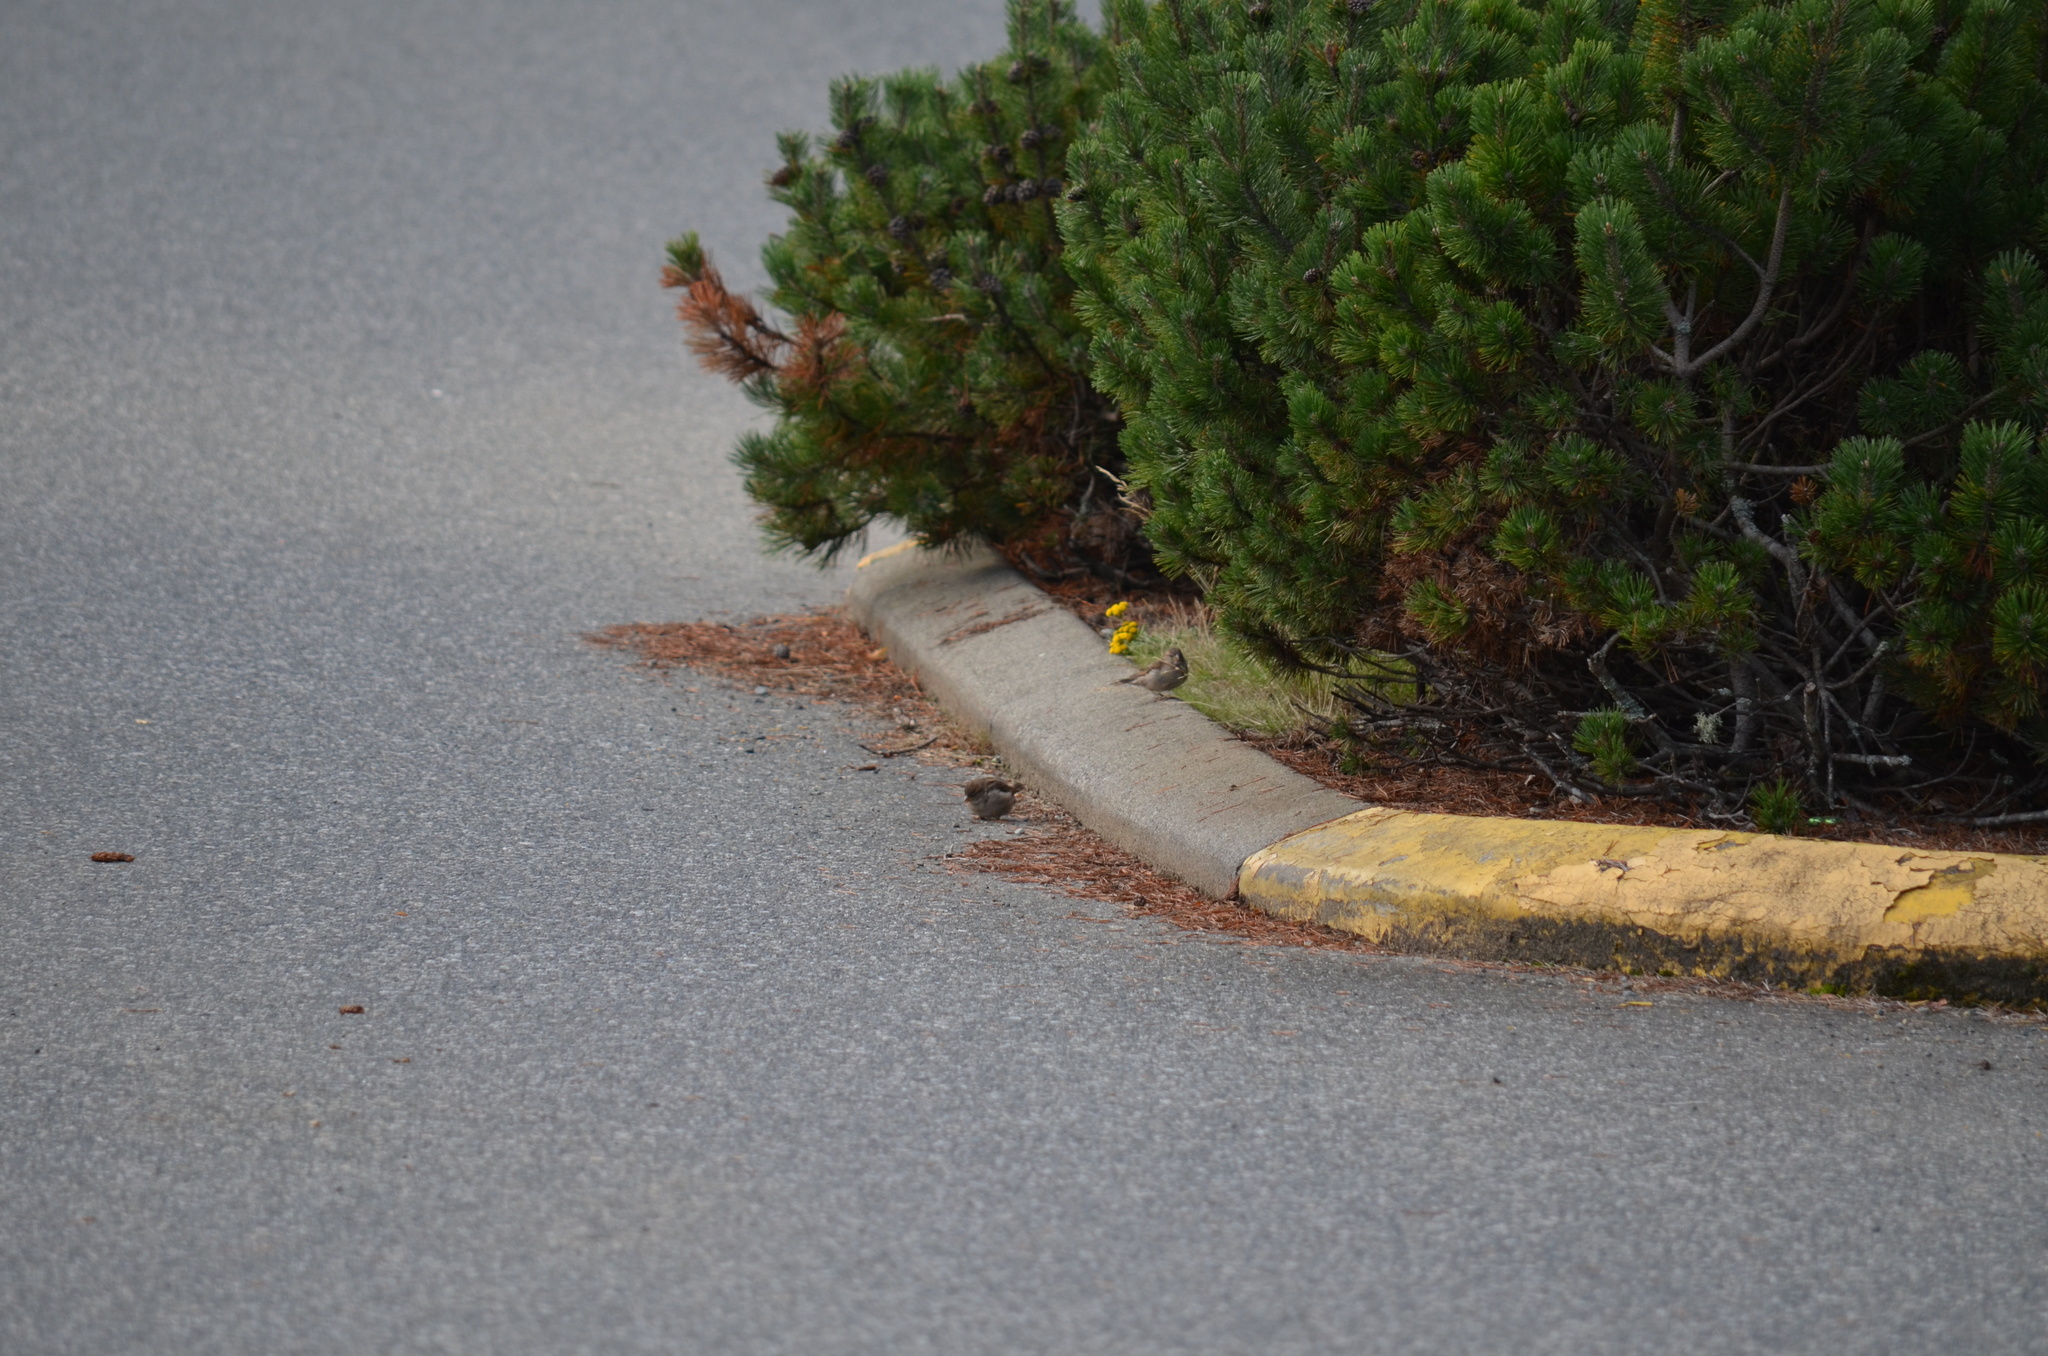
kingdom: Animalia
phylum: Chordata
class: Aves
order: Passeriformes
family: Passeridae
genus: Passer
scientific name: Passer domesticus
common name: House sparrow
